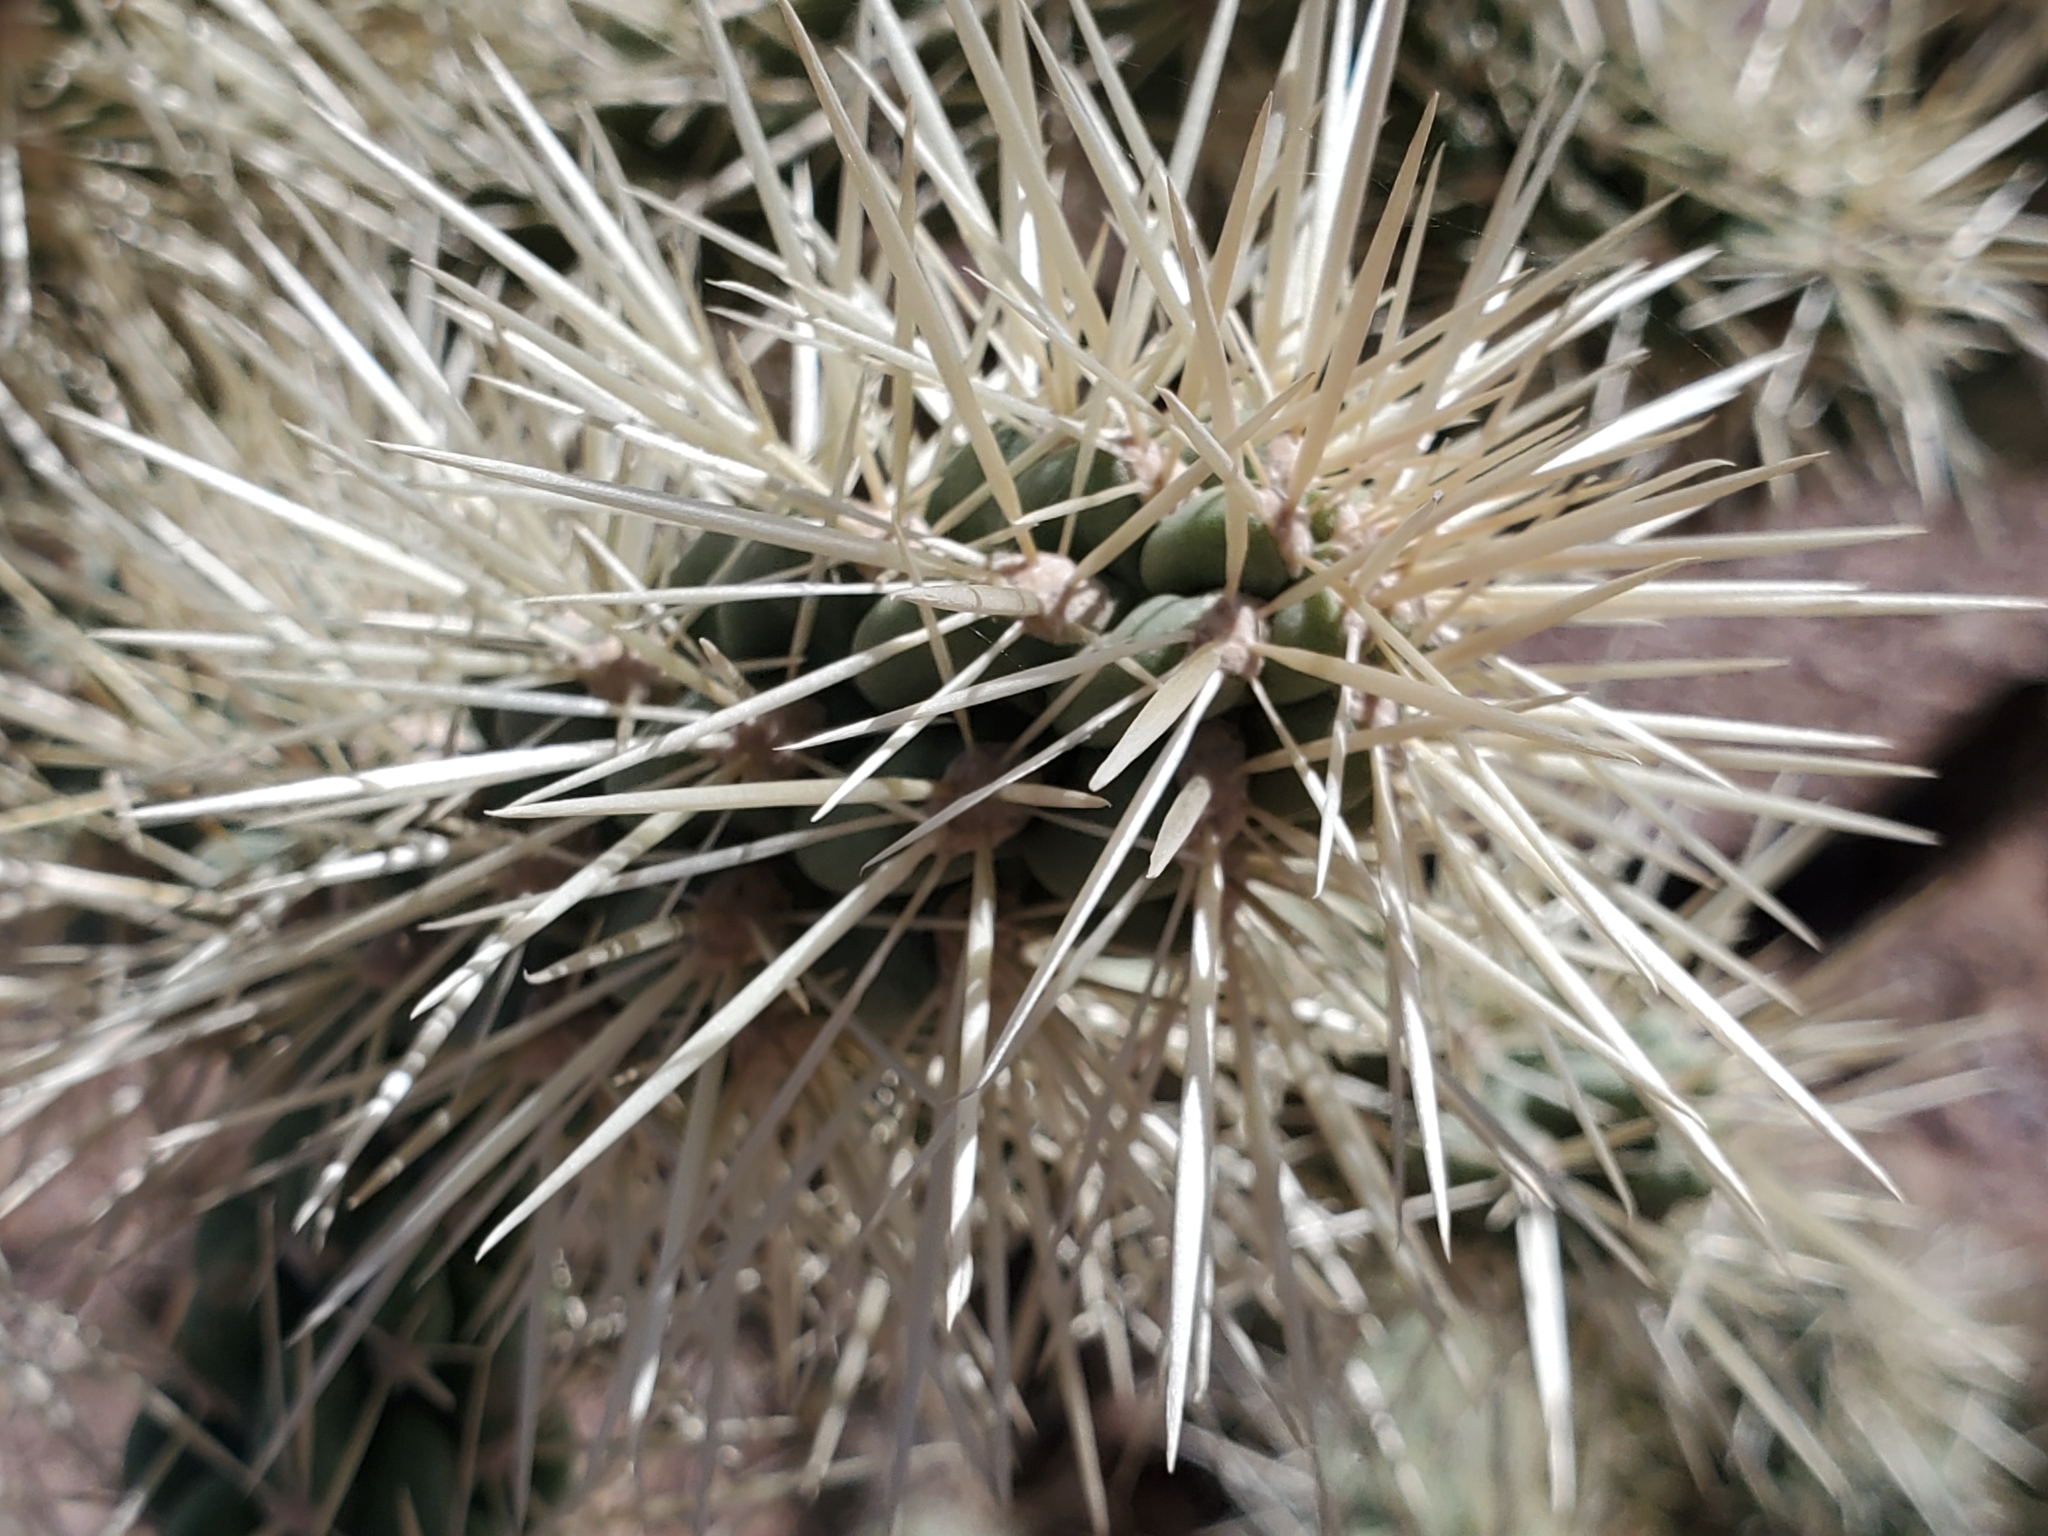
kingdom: Plantae
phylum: Tracheophyta
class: Magnoliopsida
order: Caryophyllales
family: Cactaceae
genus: Cylindropuntia
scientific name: Cylindropuntia fulgida
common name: Jumping cholla
